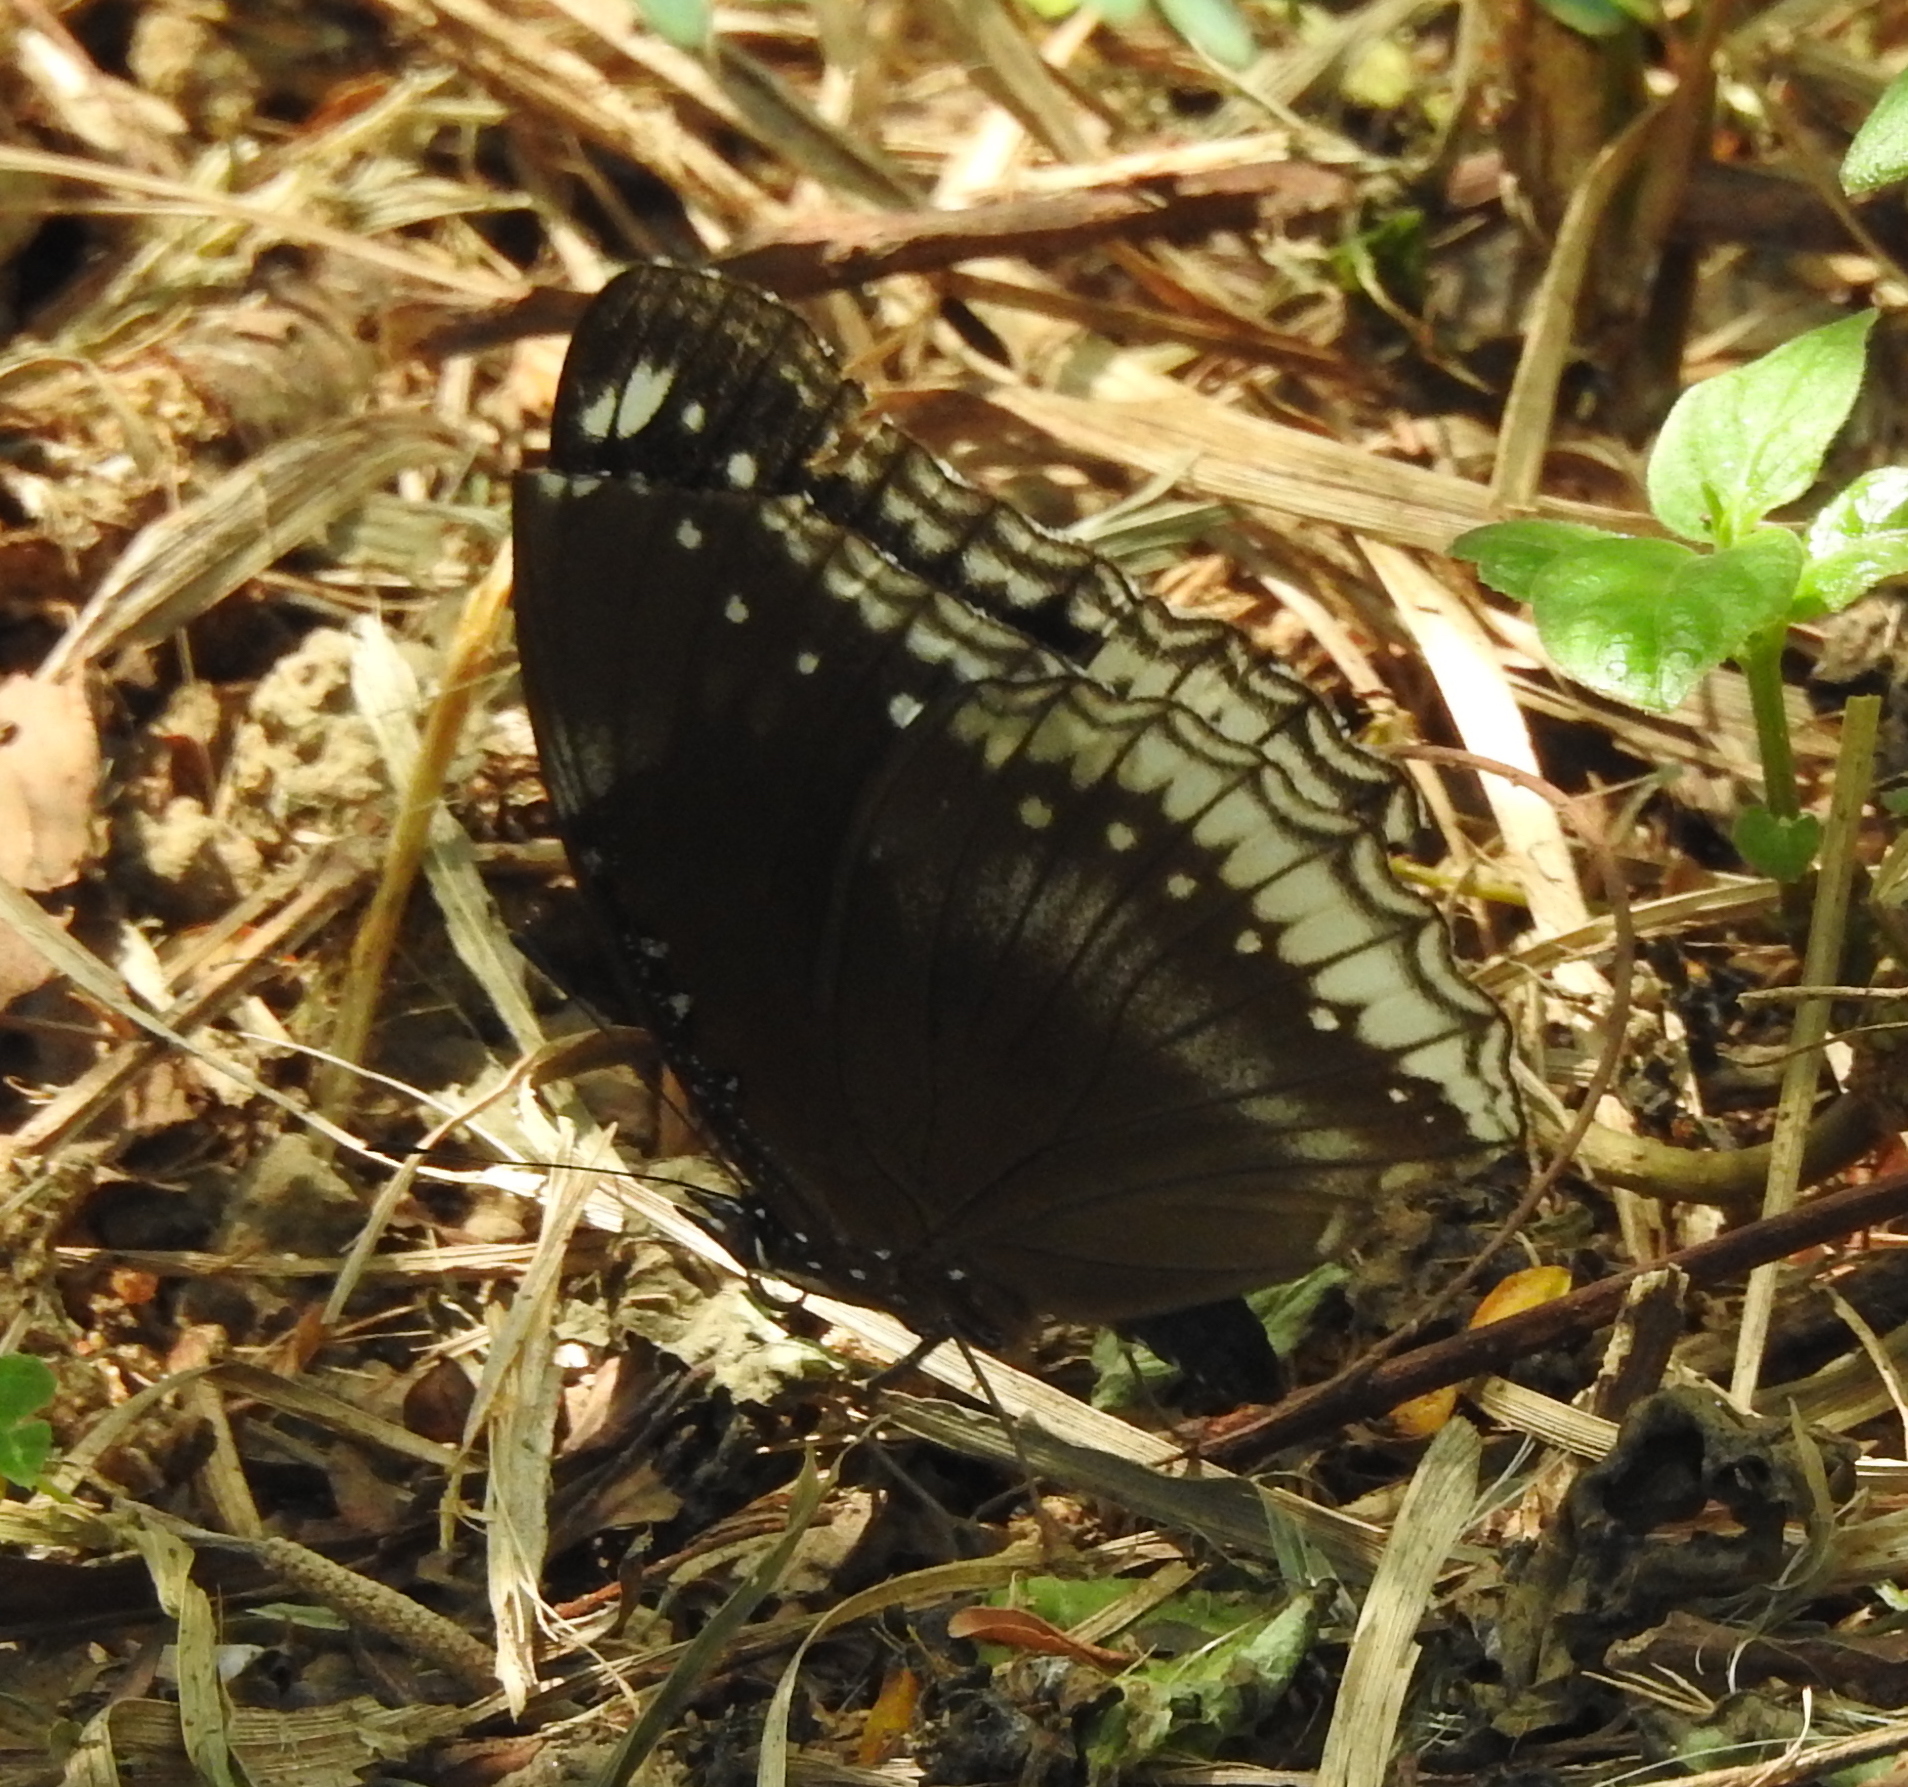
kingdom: Animalia
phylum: Arthropoda
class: Insecta
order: Lepidoptera
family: Nymphalidae
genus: Hypolimnas
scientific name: Hypolimnas bolina
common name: Great eggfly
